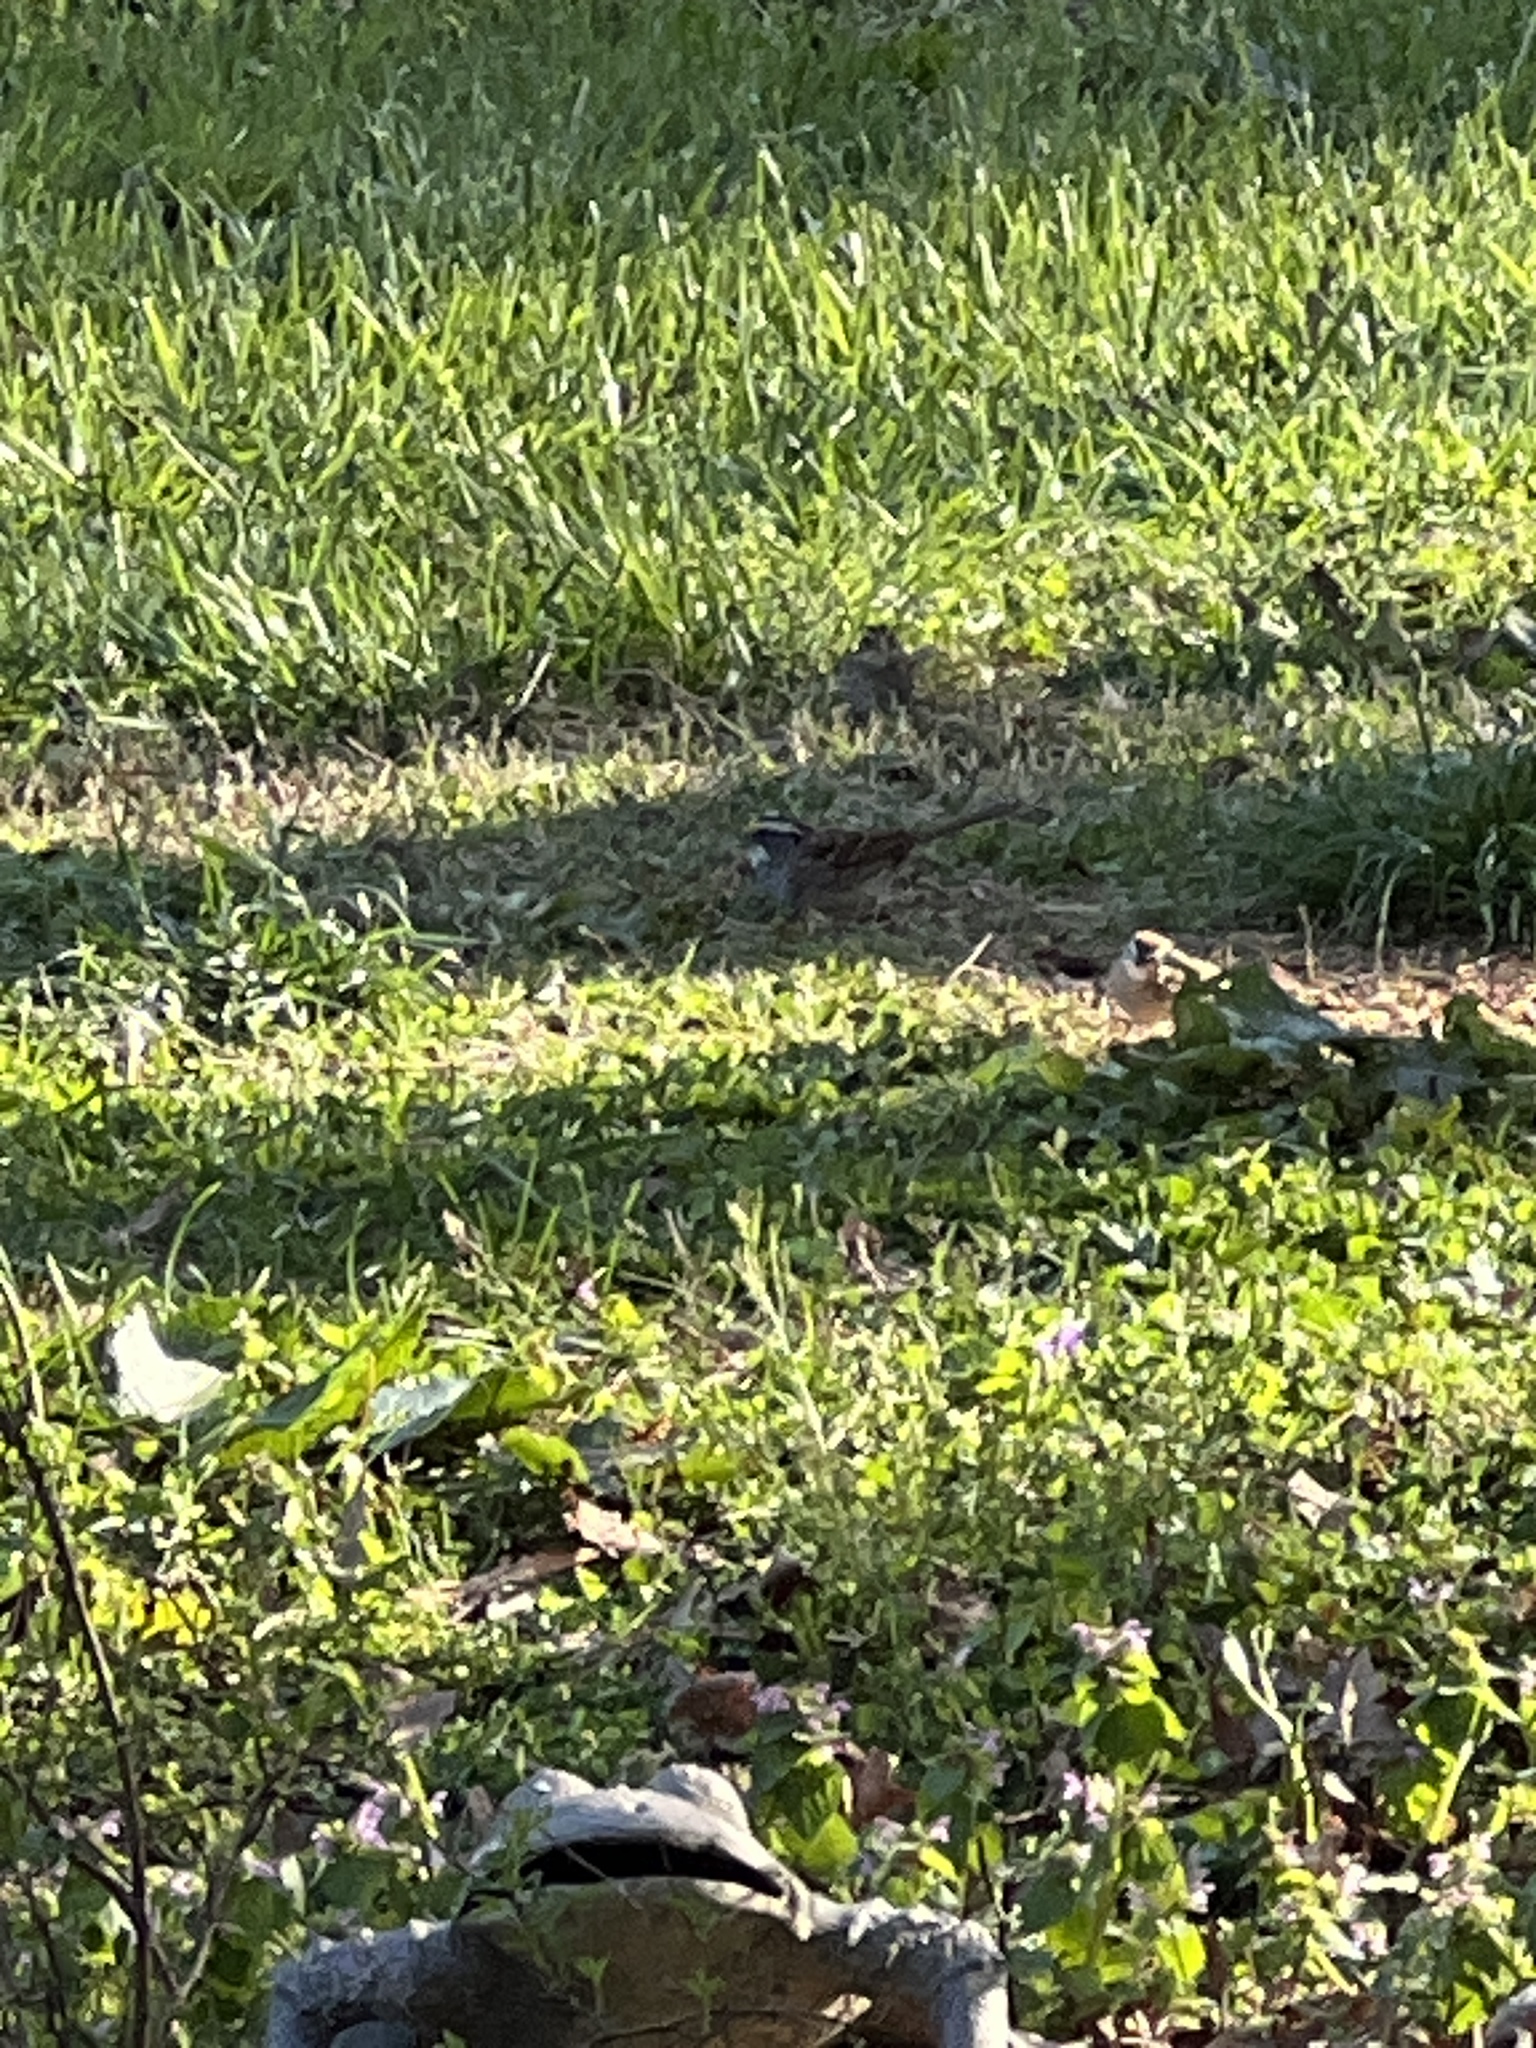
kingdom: Animalia
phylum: Chordata
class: Aves
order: Passeriformes
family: Passerellidae
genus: Zonotrichia
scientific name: Zonotrichia albicollis
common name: White-throated sparrow
